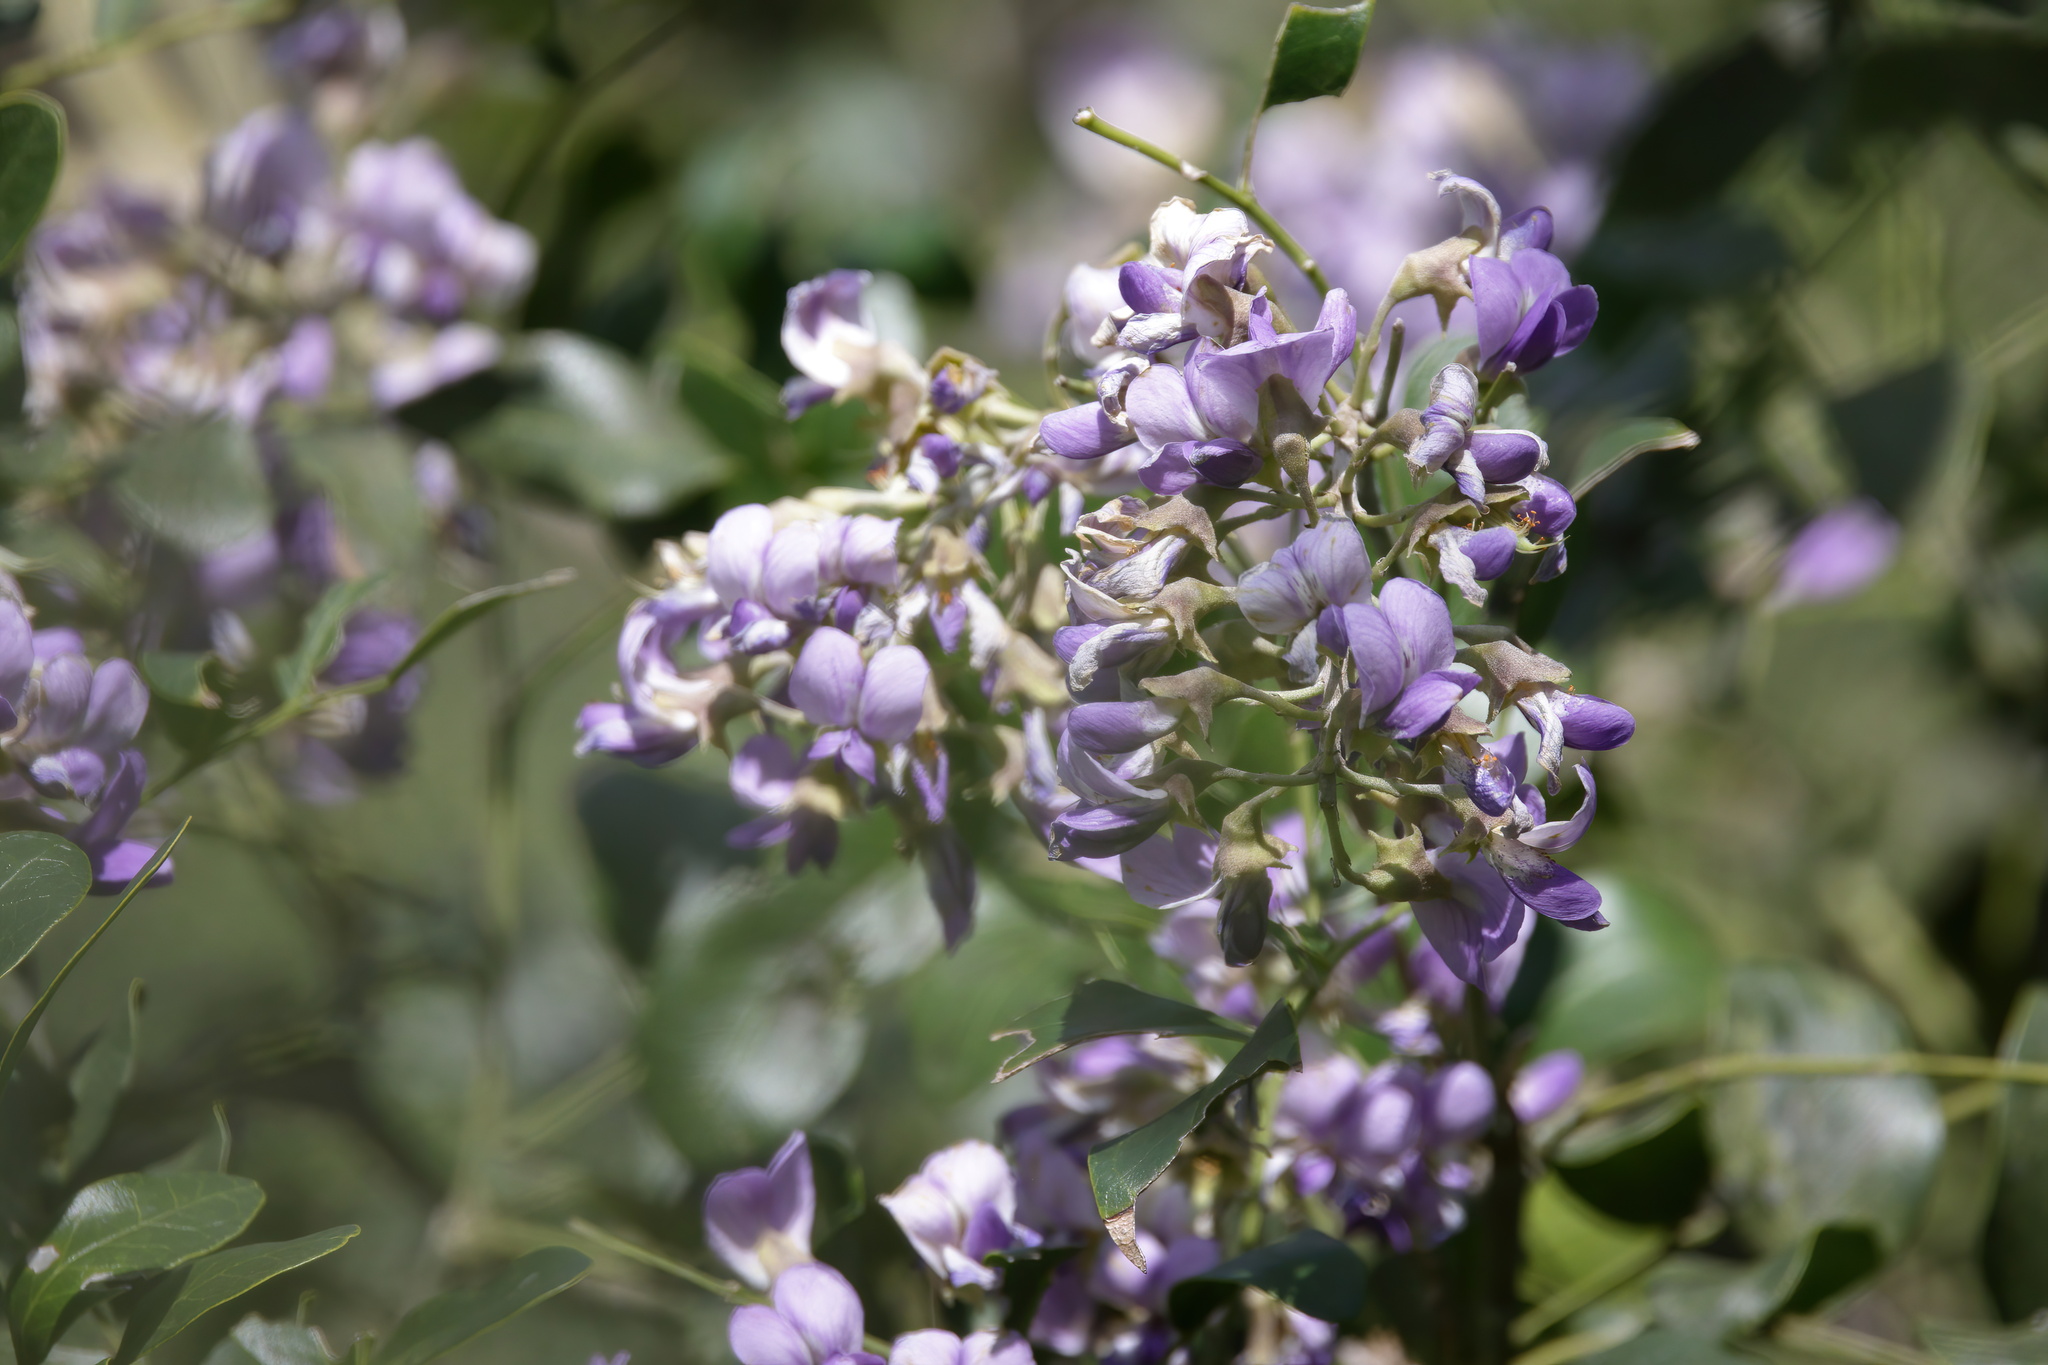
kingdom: Plantae
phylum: Tracheophyta
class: Magnoliopsida
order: Fabales
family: Fabaceae
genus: Dermatophyllum
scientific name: Dermatophyllum secundiflorum
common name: Texas-mountain-laurel
